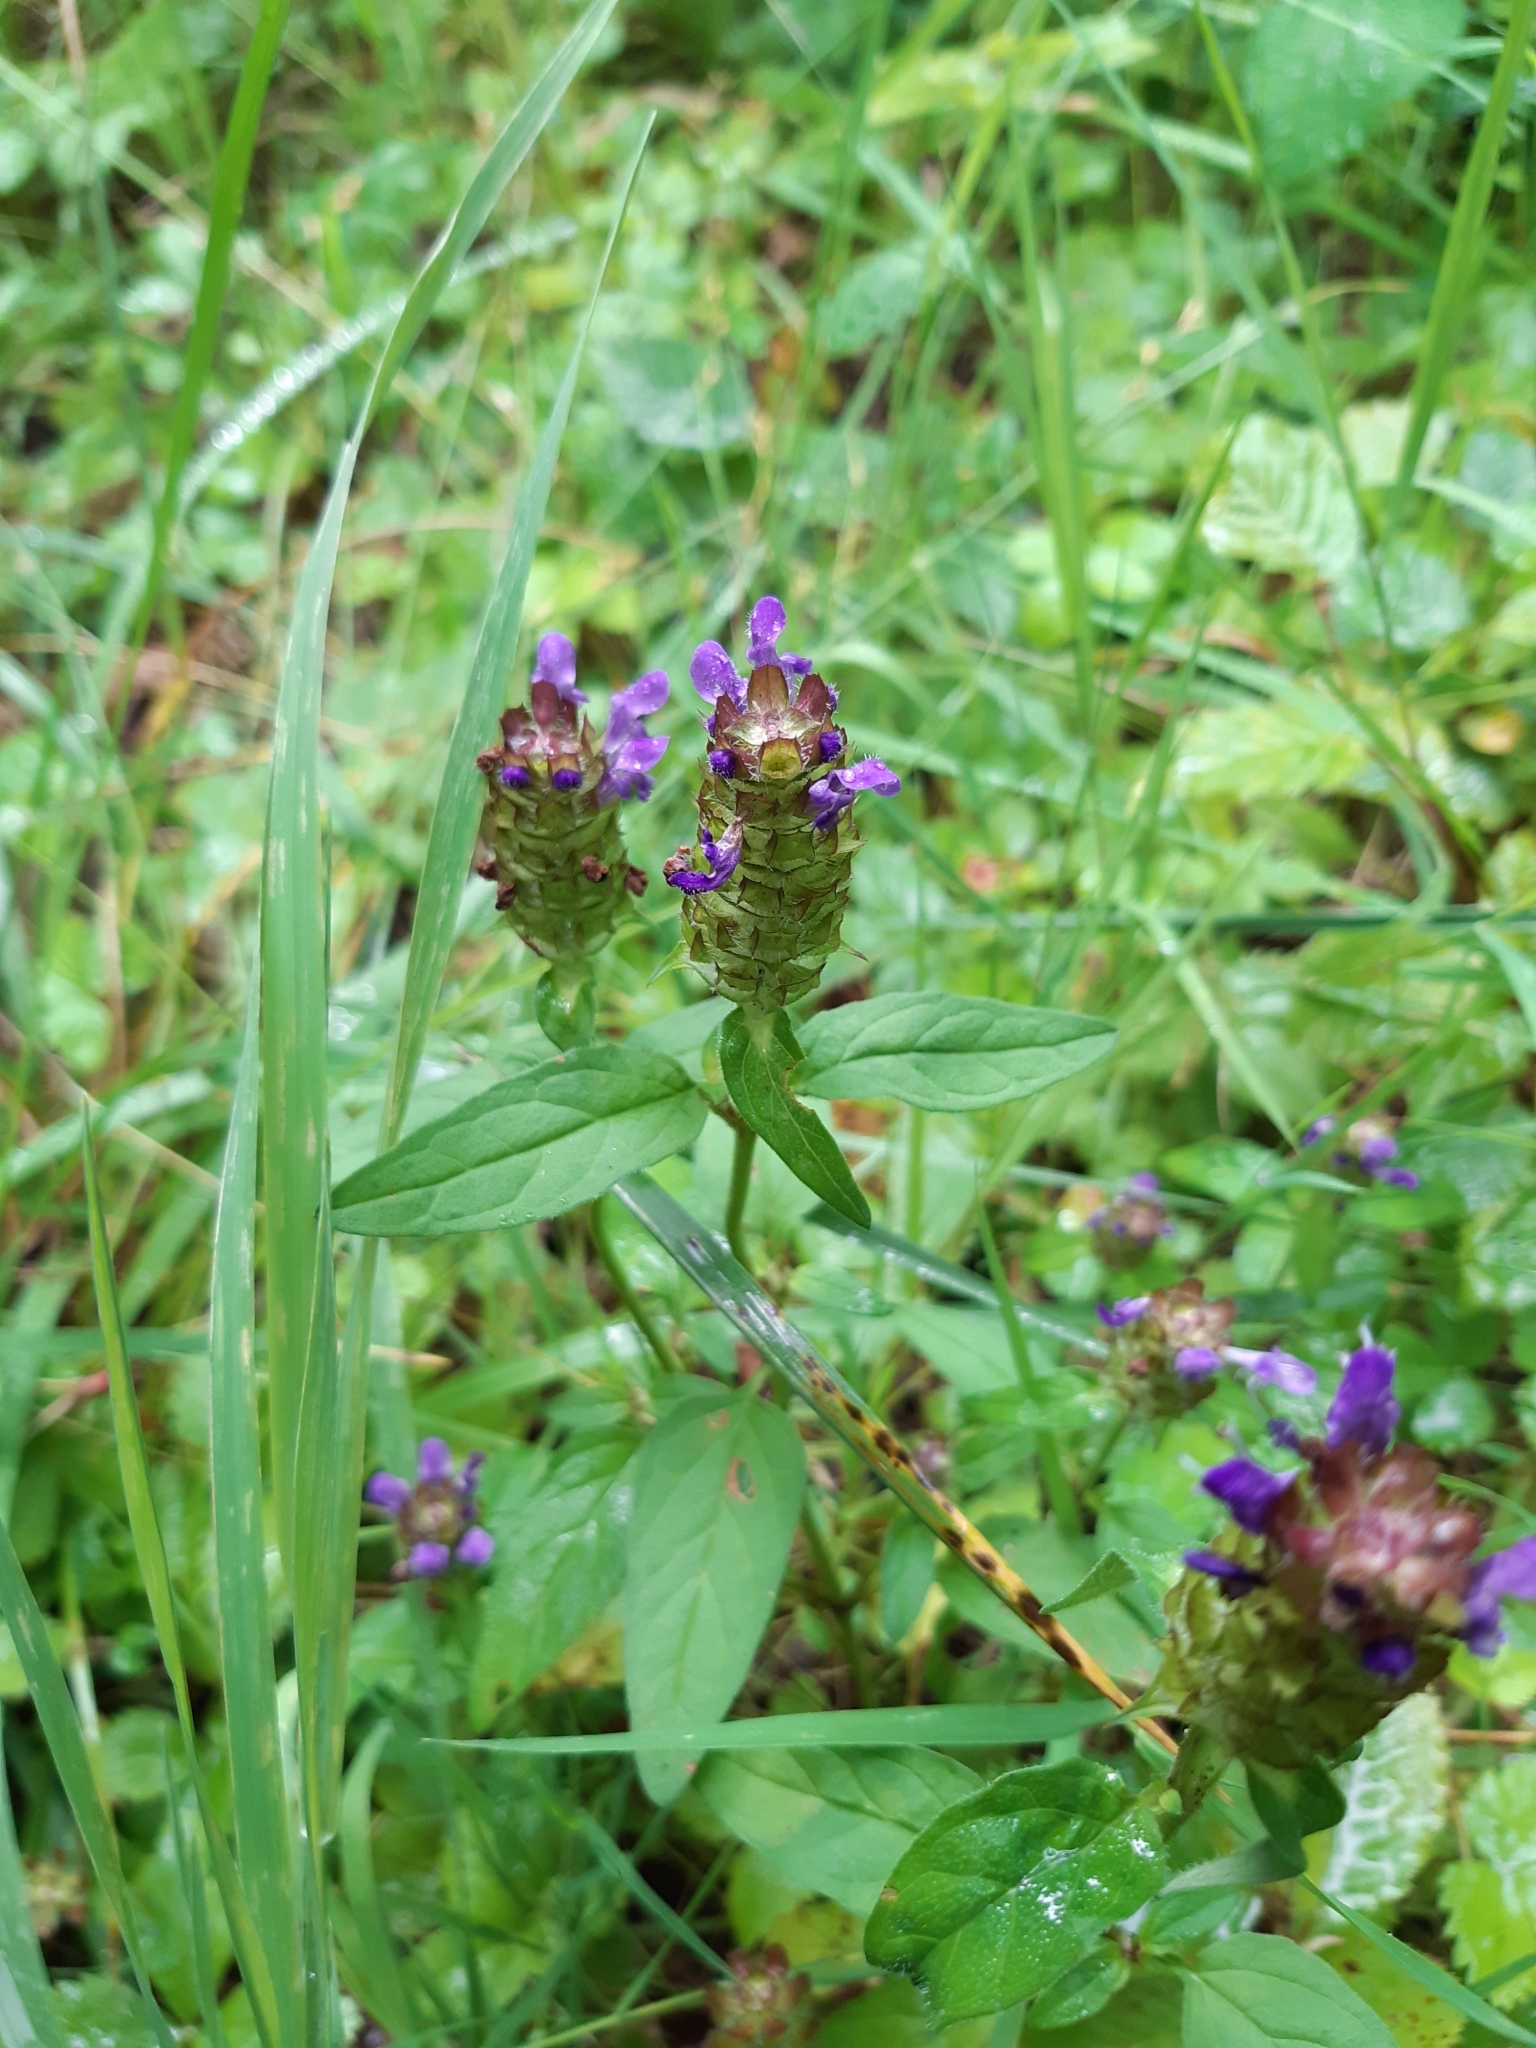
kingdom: Plantae
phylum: Tracheophyta
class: Magnoliopsida
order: Lamiales
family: Lamiaceae
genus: Prunella
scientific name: Prunella vulgaris
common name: Heal-all
